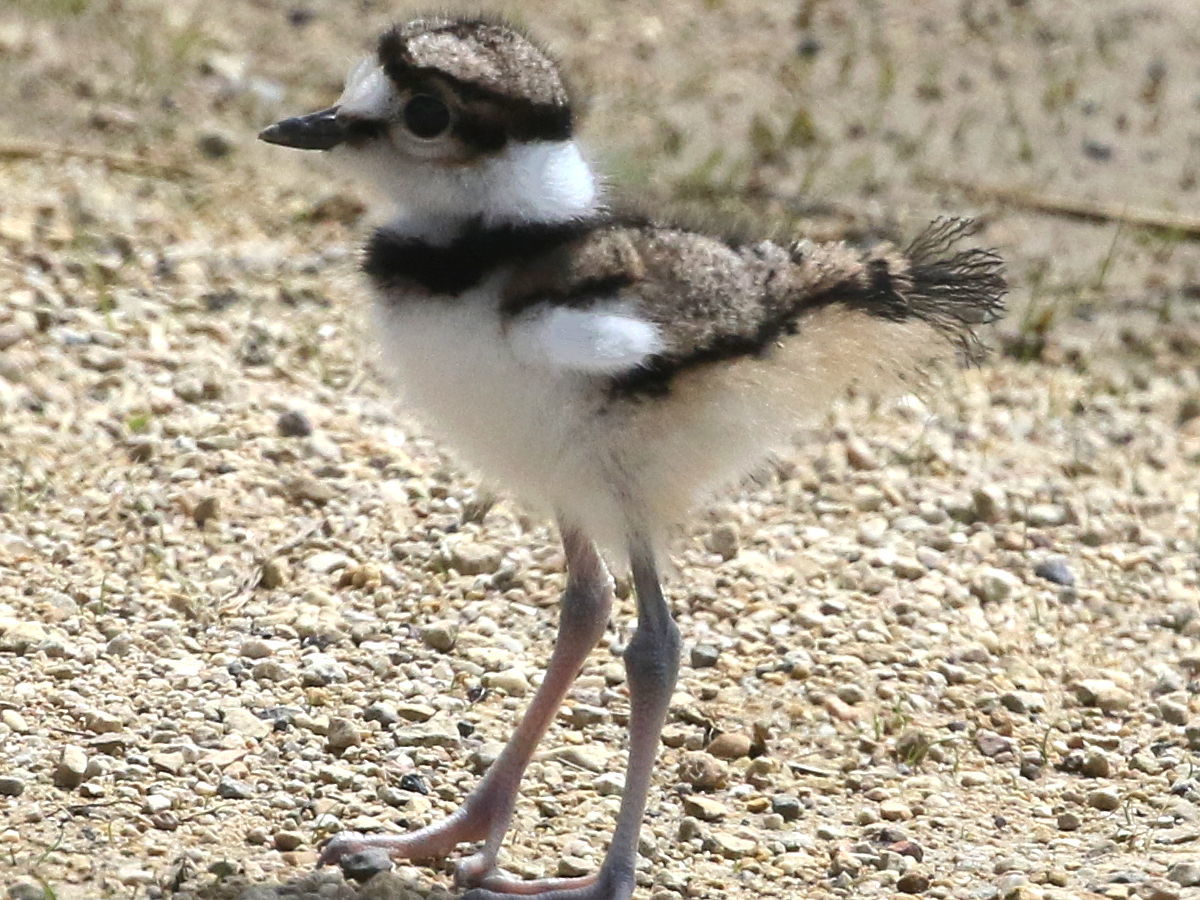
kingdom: Animalia
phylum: Chordata
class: Aves
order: Charadriiformes
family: Charadriidae
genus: Charadrius
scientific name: Charadrius vociferus
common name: Killdeer
